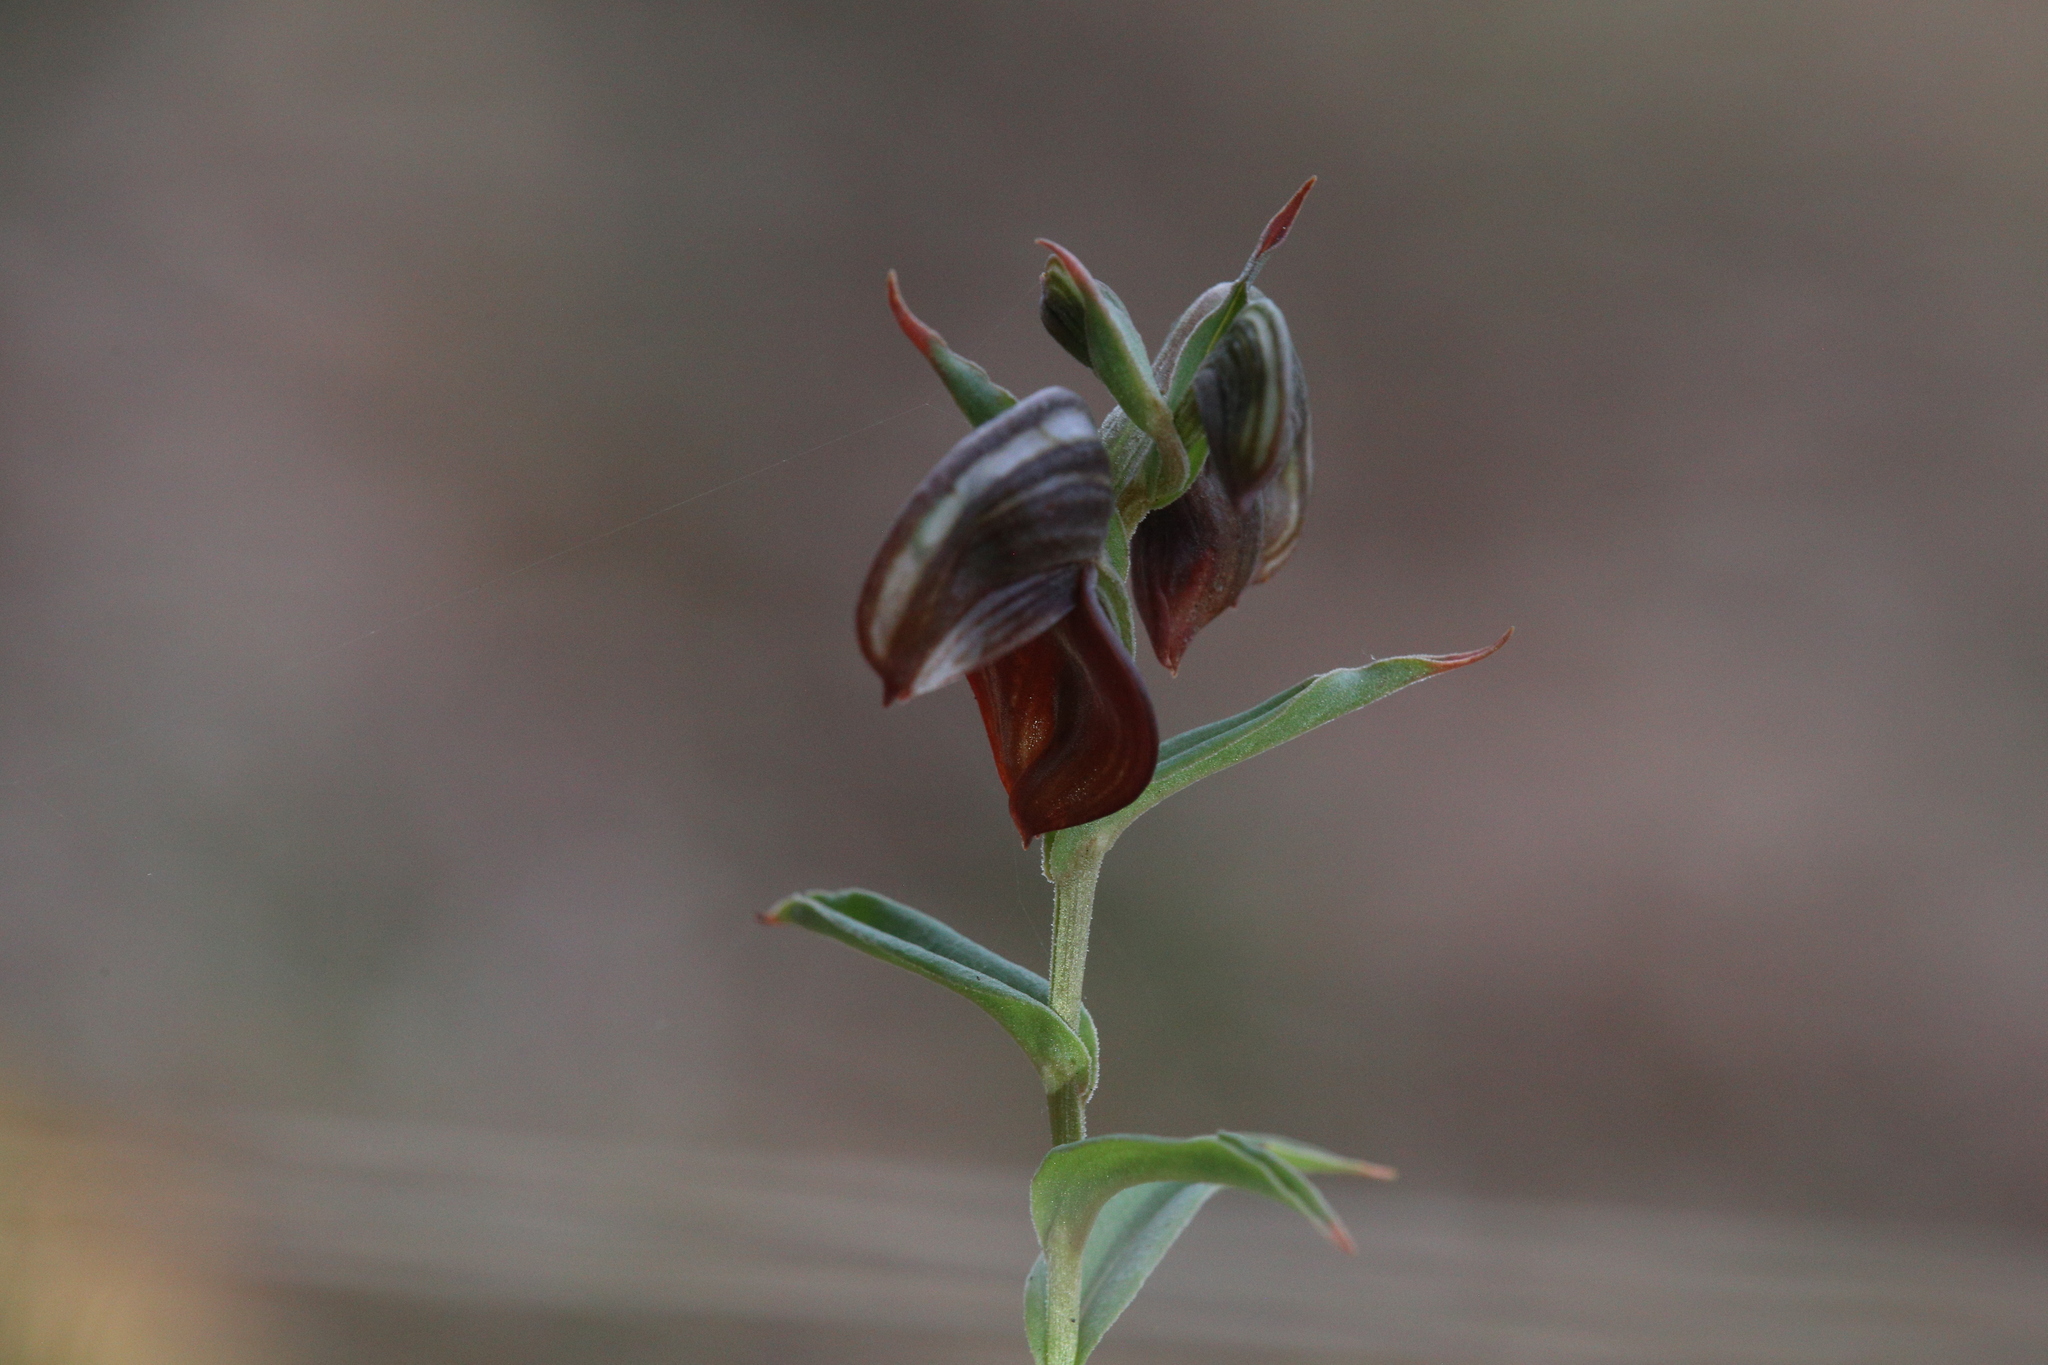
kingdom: Plantae
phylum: Tracheophyta
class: Liliopsida
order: Asparagales
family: Orchidaceae
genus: Pterostylis
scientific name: Pterostylis sanguinea
